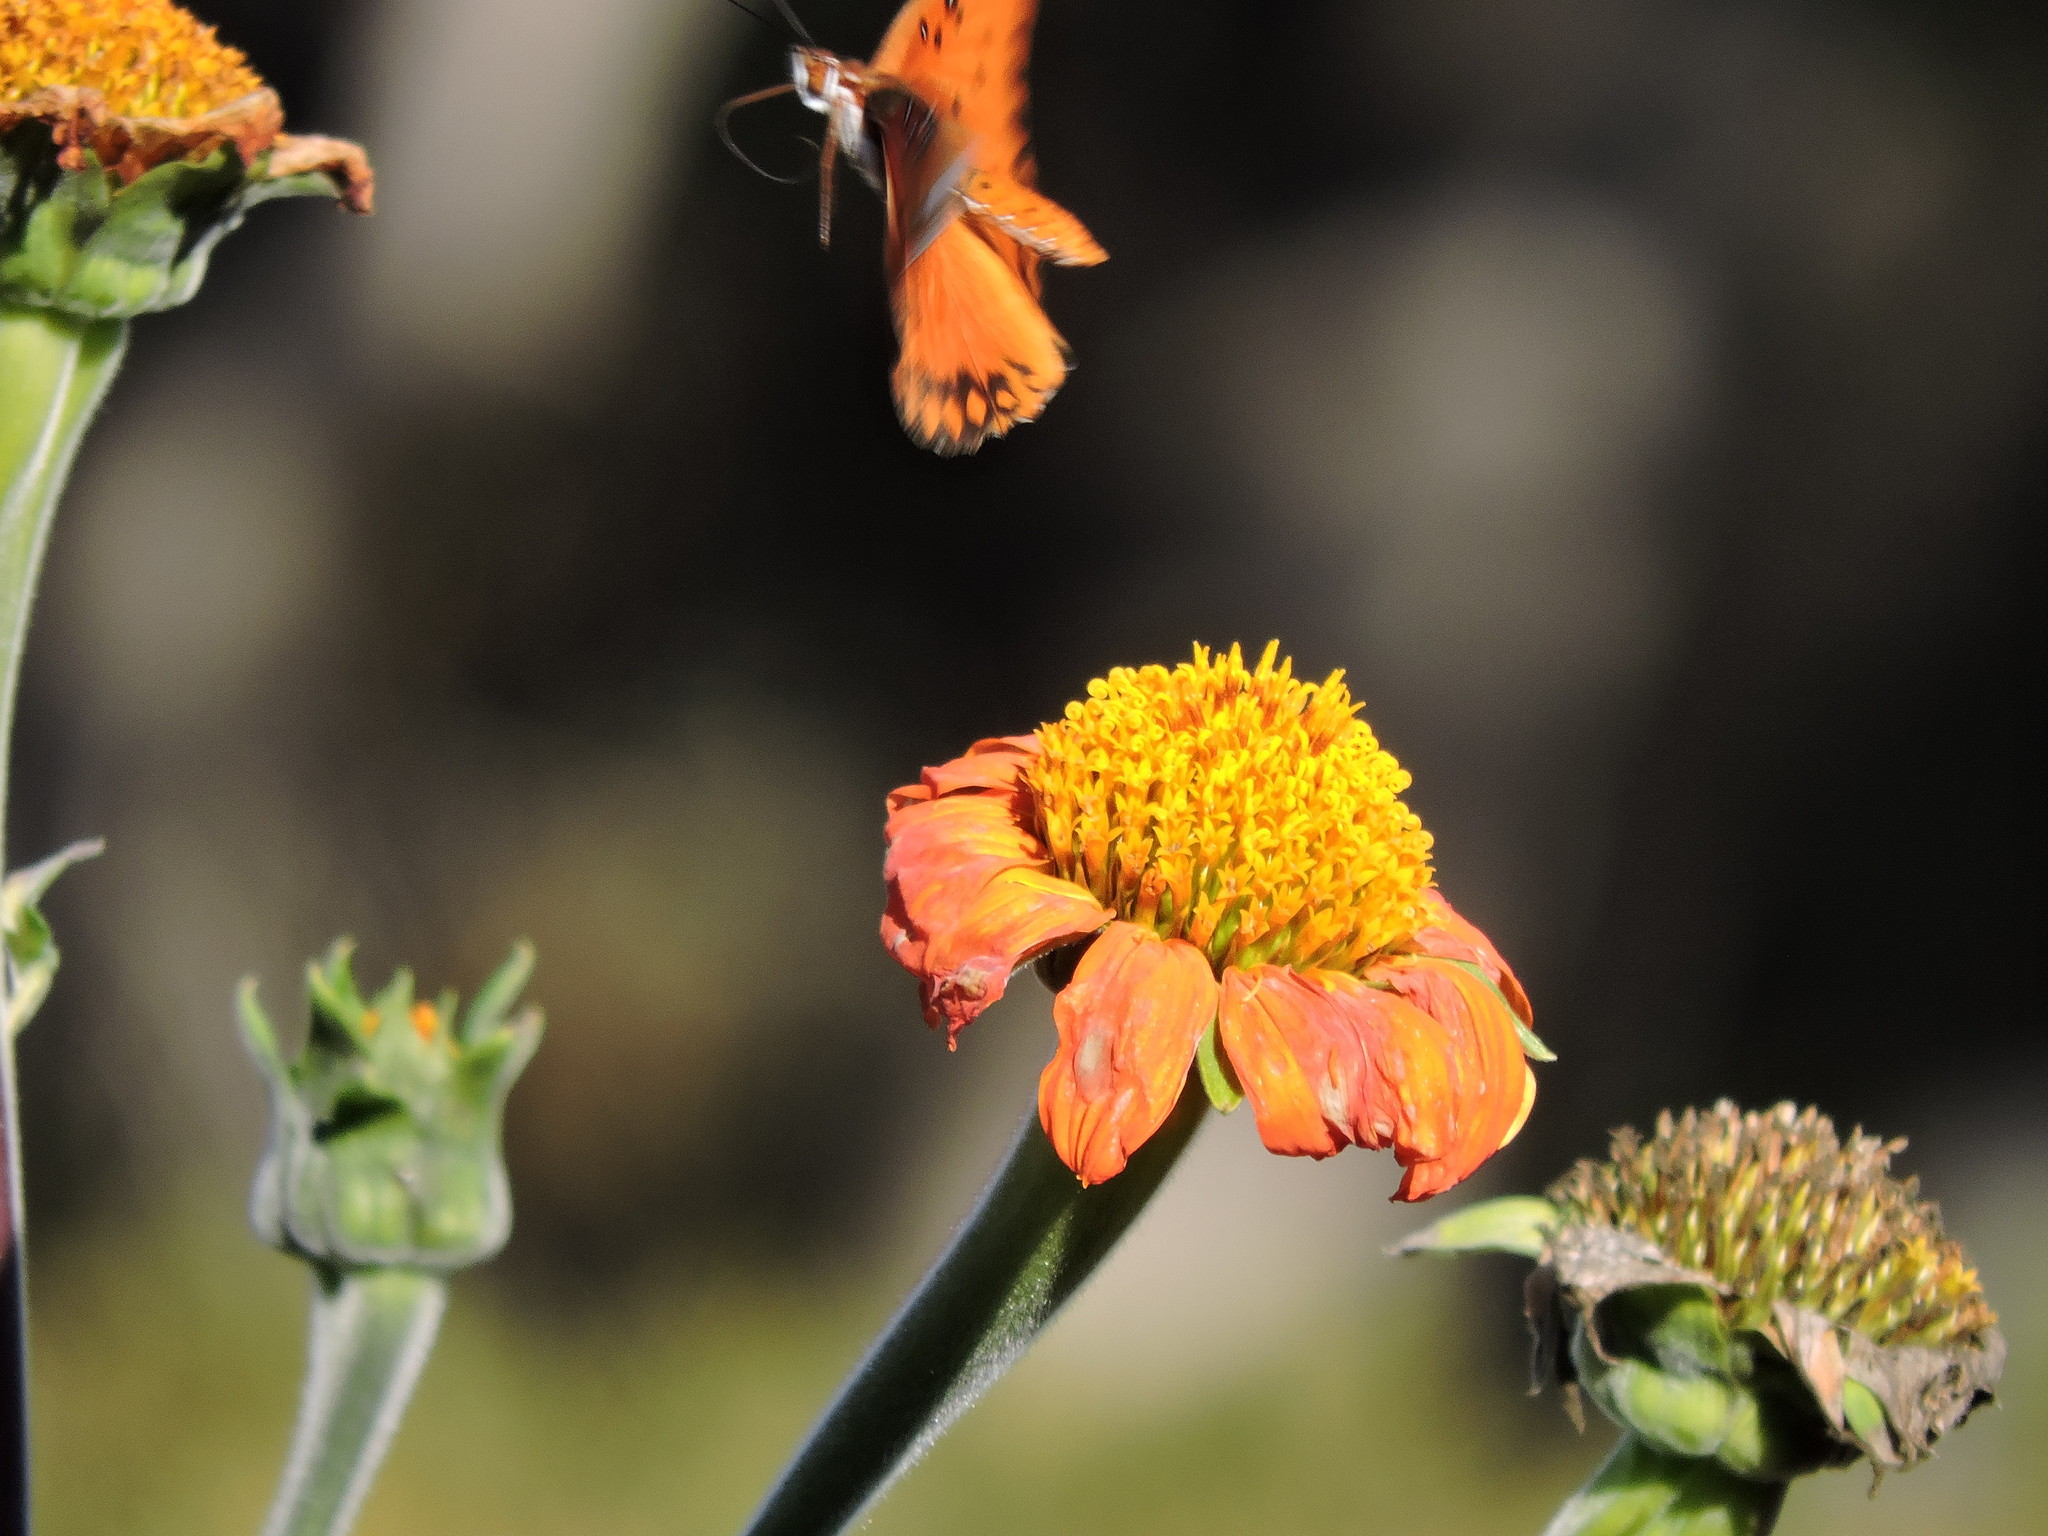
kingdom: Animalia
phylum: Arthropoda
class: Insecta
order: Lepidoptera
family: Nymphalidae
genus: Dione
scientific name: Dione vanillae
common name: Gulf fritillary
